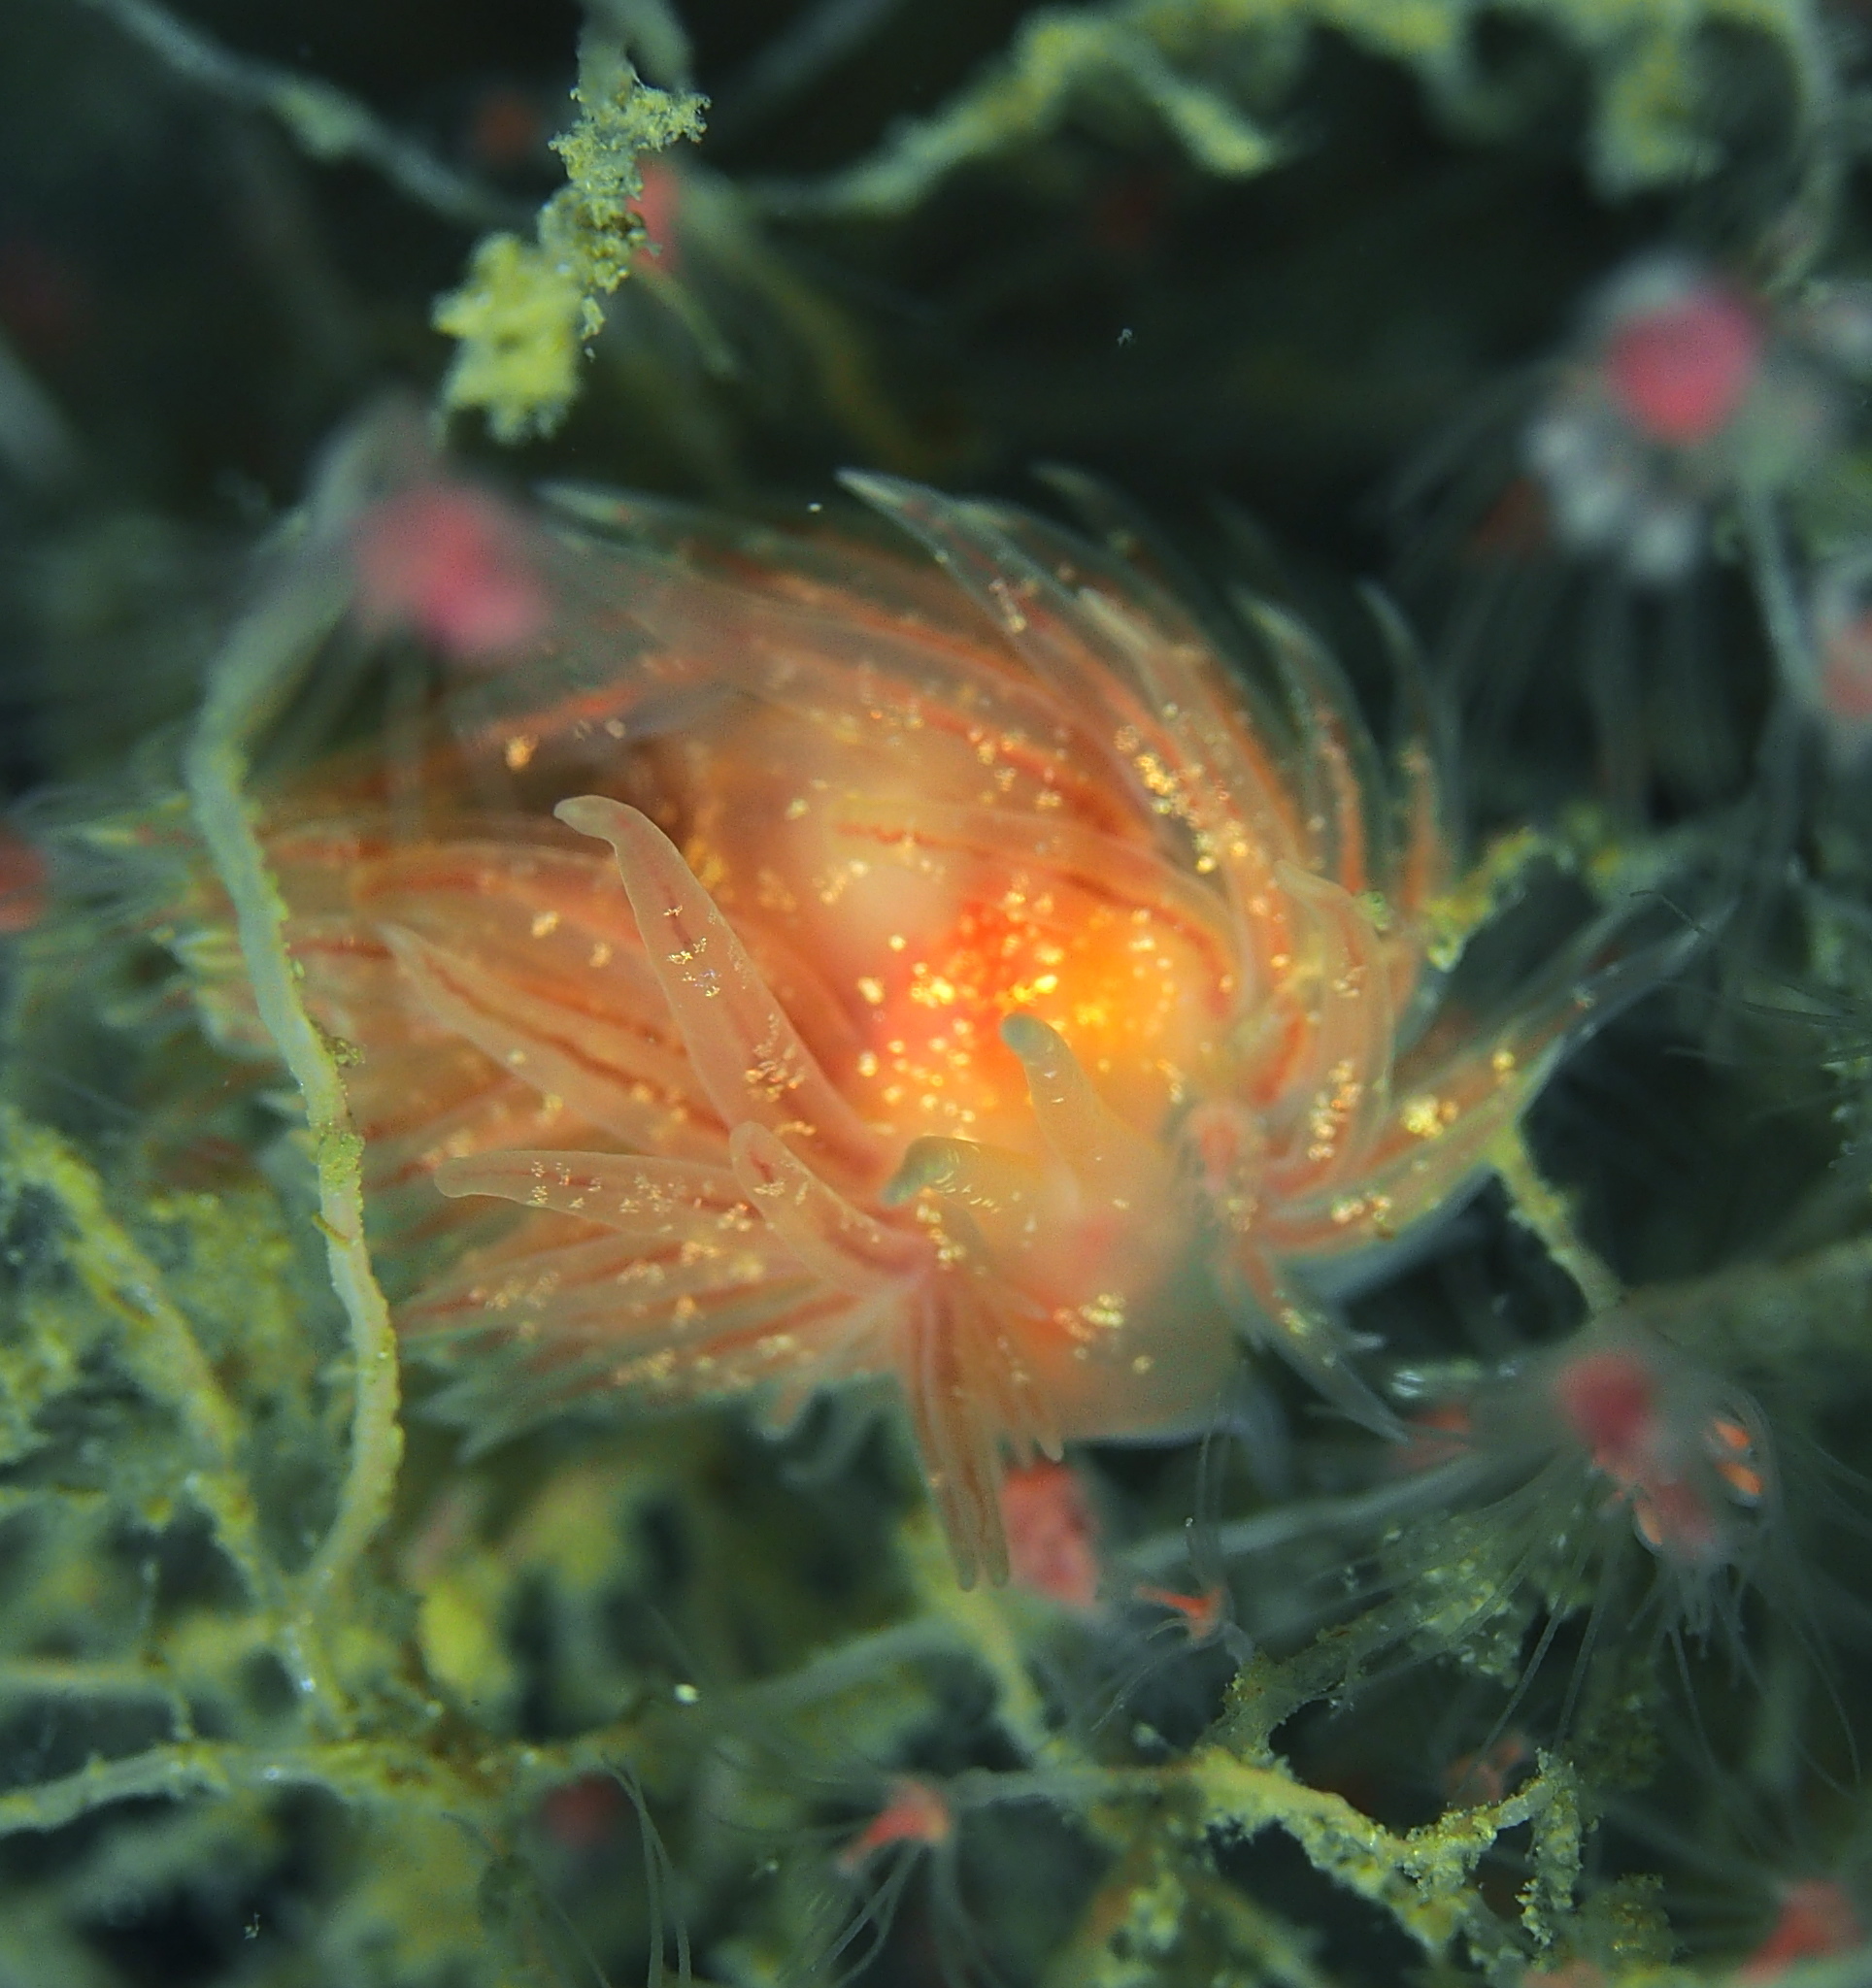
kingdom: Animalia
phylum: Mollusca
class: Gastropoda
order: Nudibranchia
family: Cumanotidae
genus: Cumanotus
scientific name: Cumanotus beaumonti
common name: Polyp aeolis
